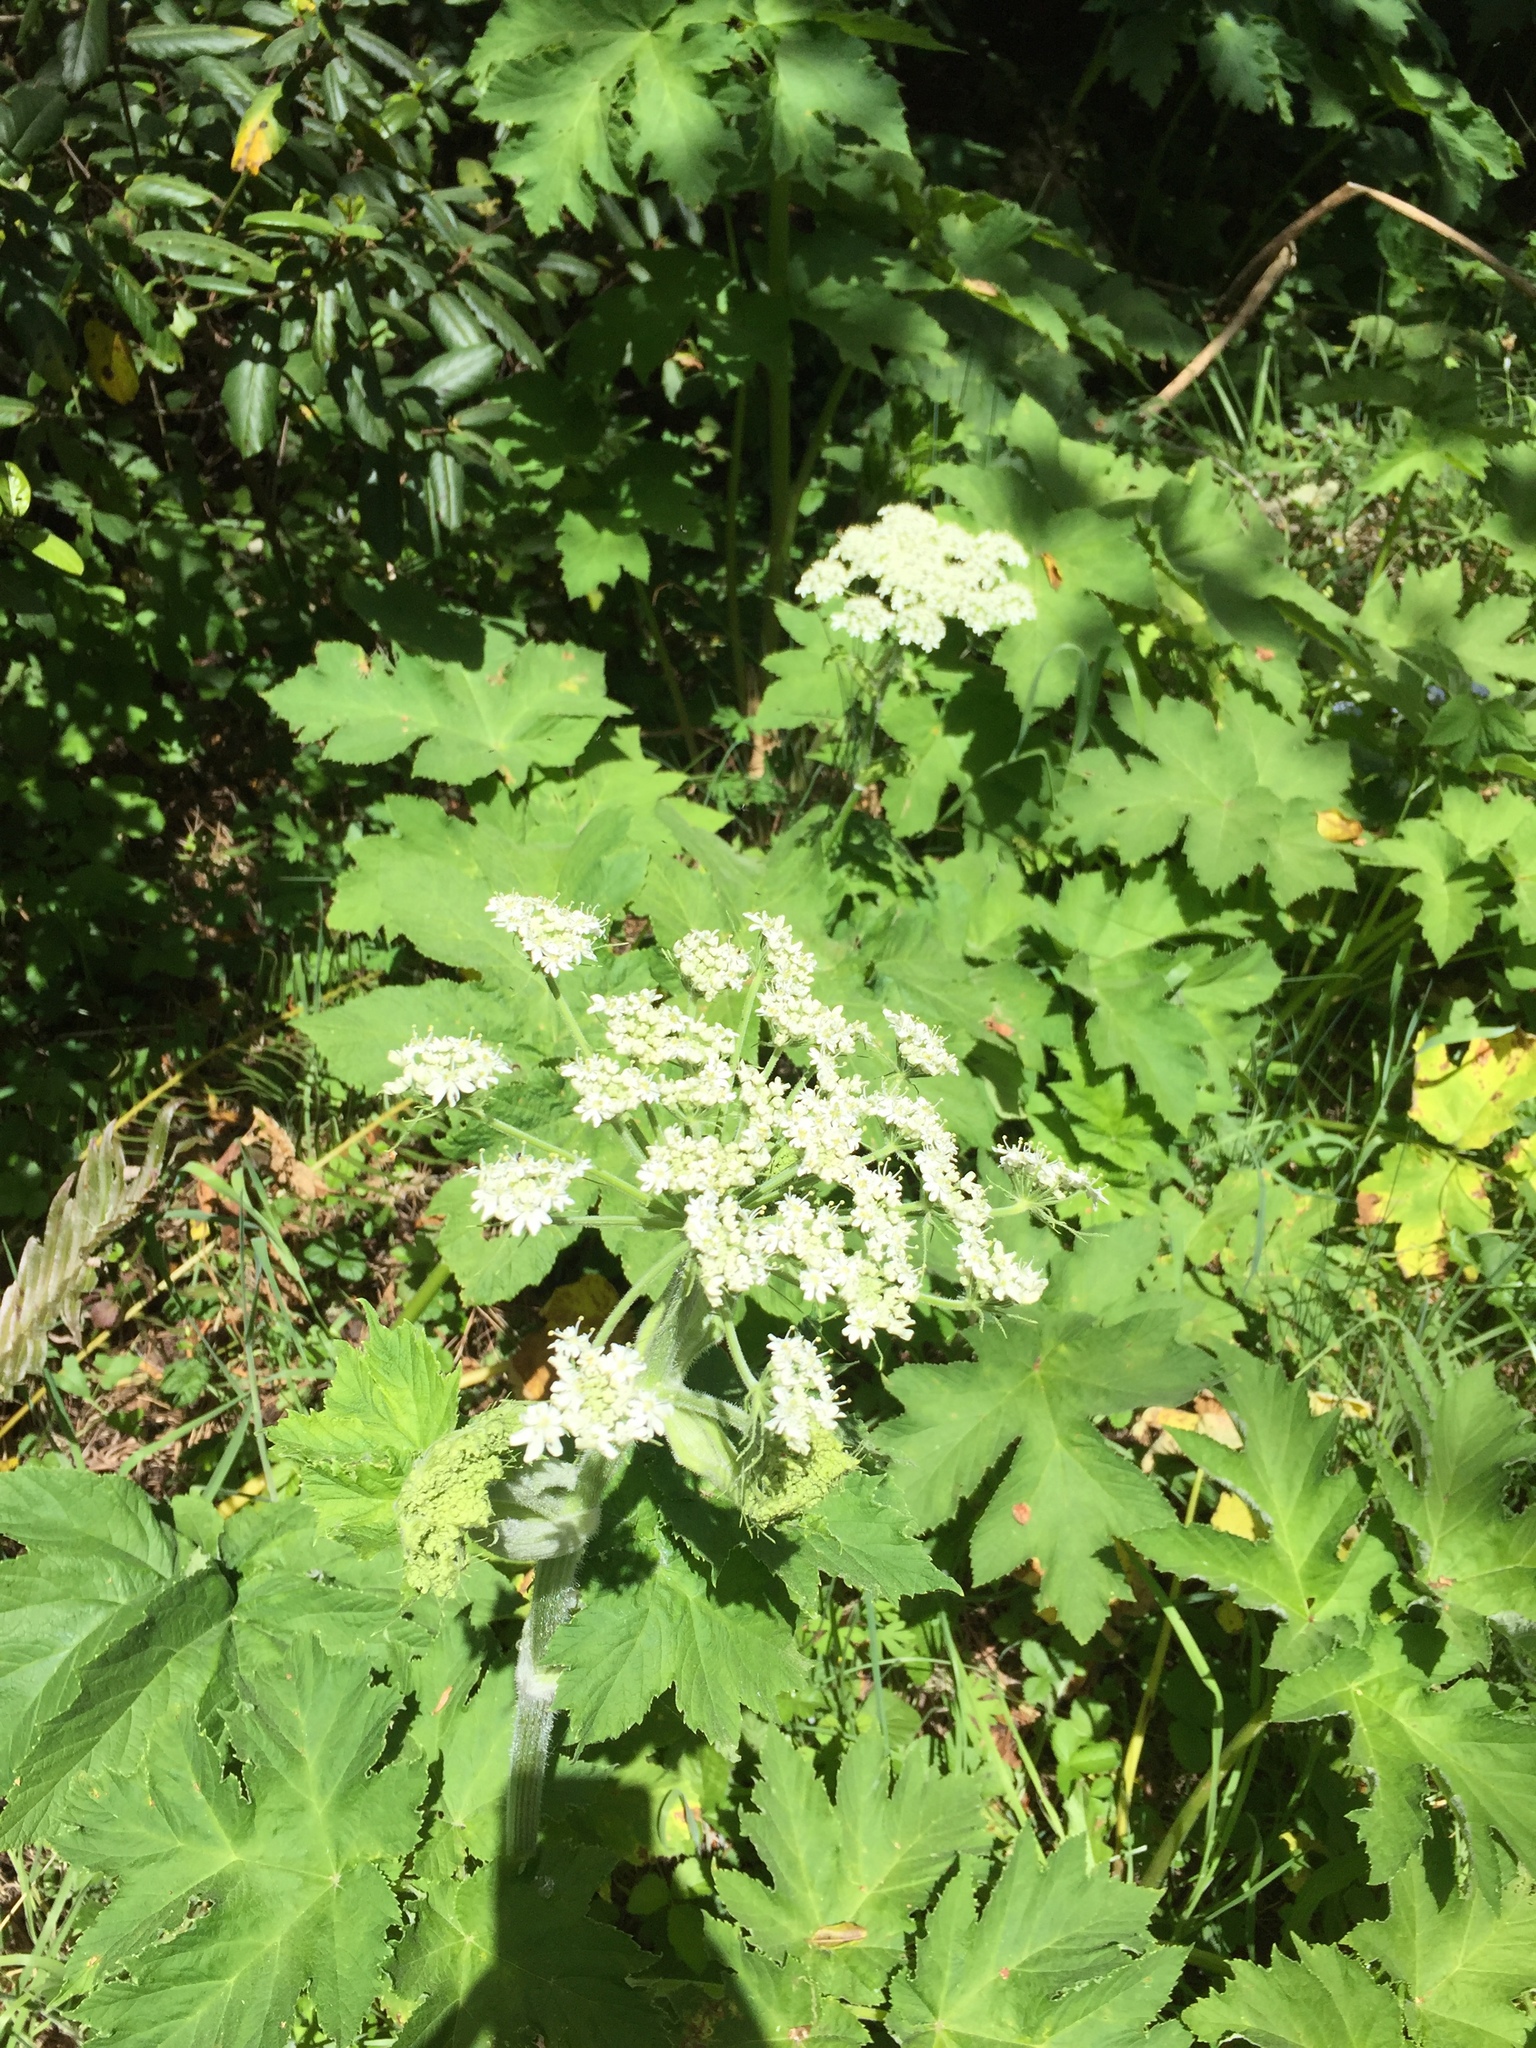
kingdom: Plantae
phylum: Tracheophyta
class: Magnoliopsida
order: Apiales
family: Apiaceae
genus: Heracleum
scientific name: Heracleum maximum
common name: American cow parsnip
